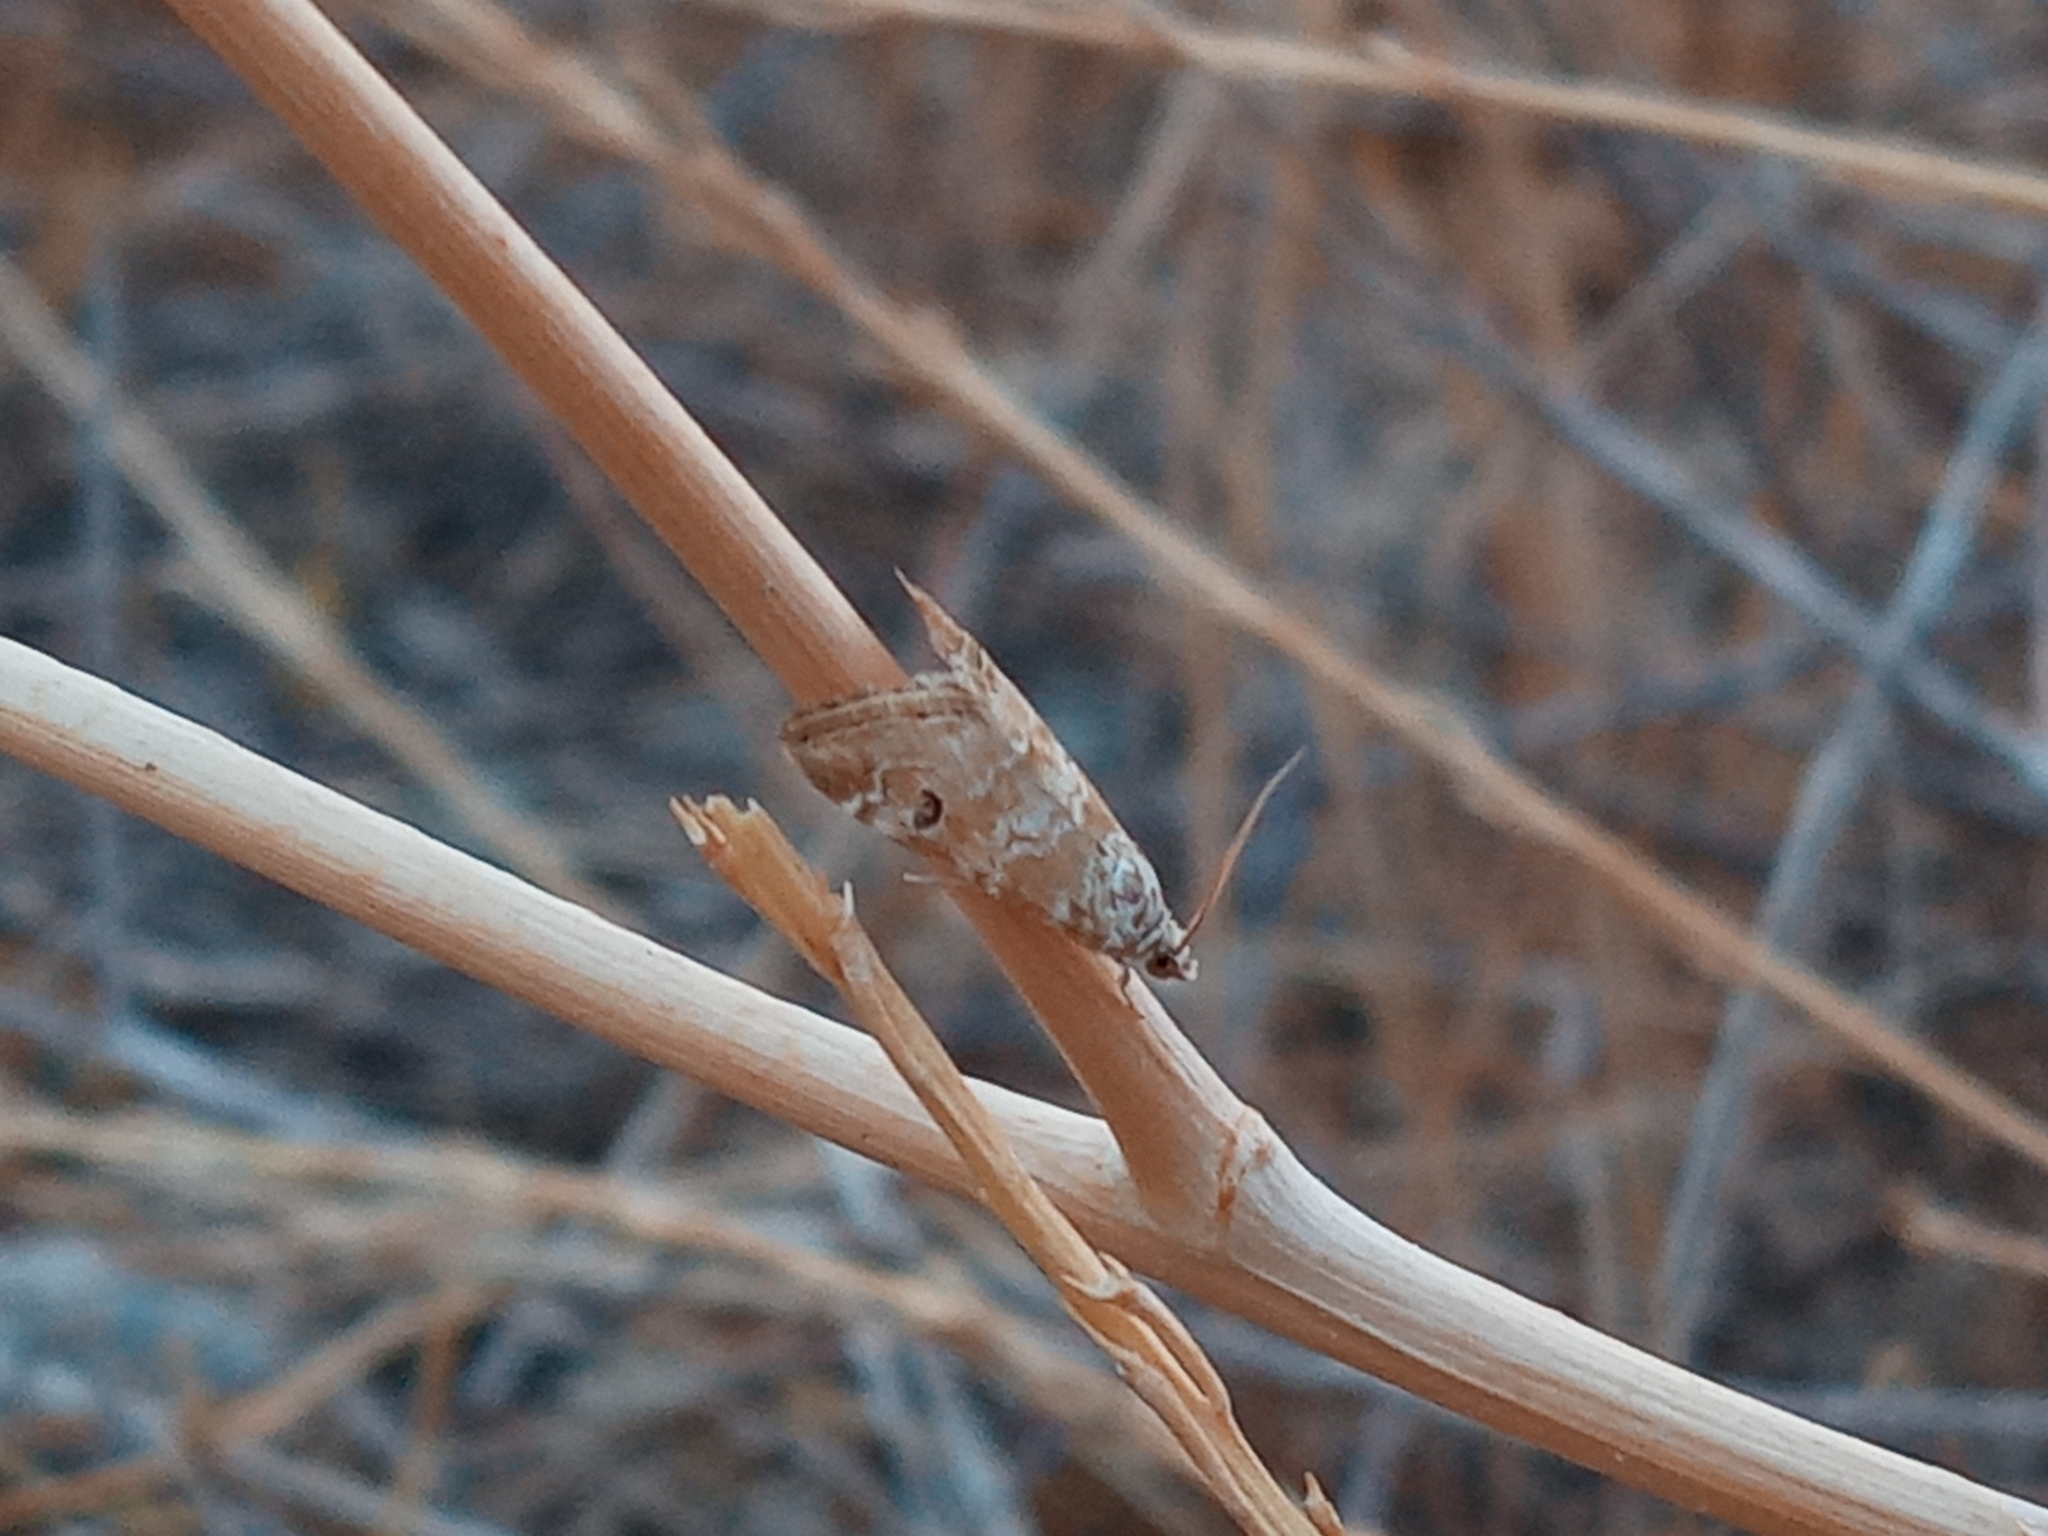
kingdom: Animalia
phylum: Arthropoda
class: Insecta
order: Lepidoptera
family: Crambidae
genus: Hellula
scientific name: Hellula rogatalis
